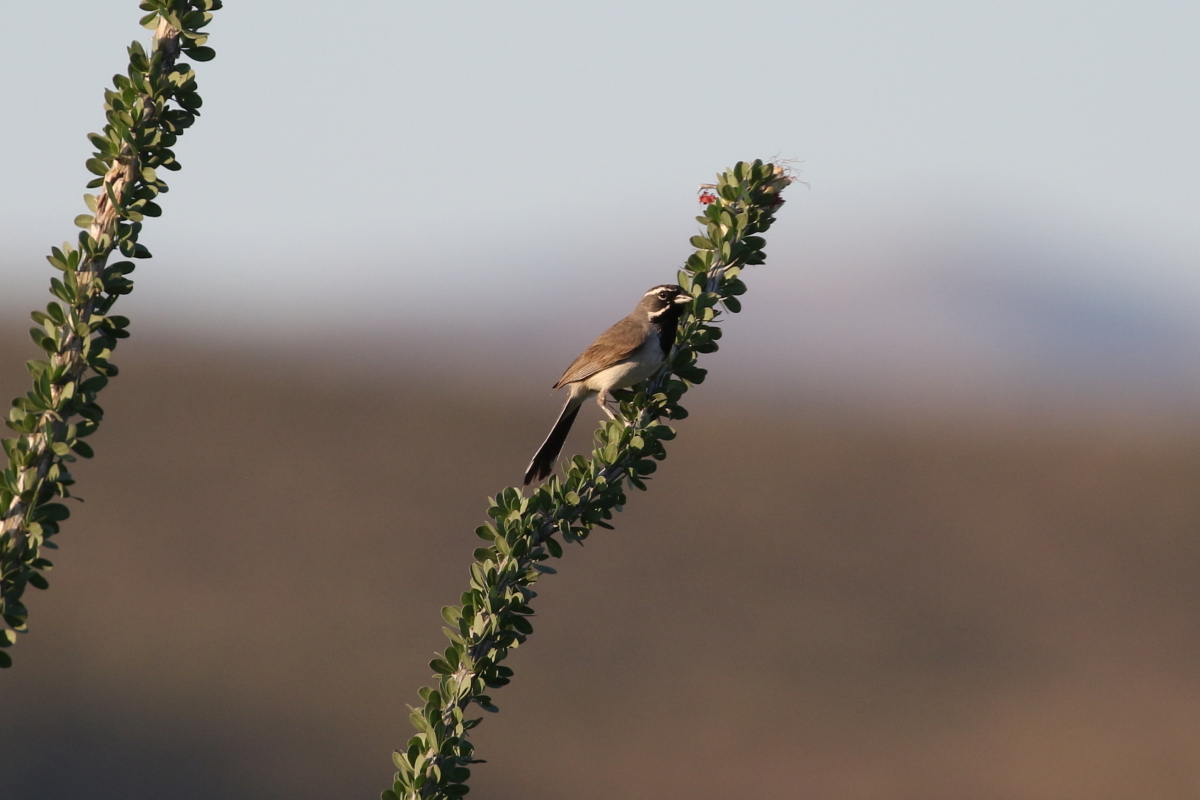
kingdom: Animalia
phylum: Chordata
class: Aves
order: Passeriformes
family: Passerellidae
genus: Amphispiza
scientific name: Amphispiza bilineata
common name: Black-throated sparrow
